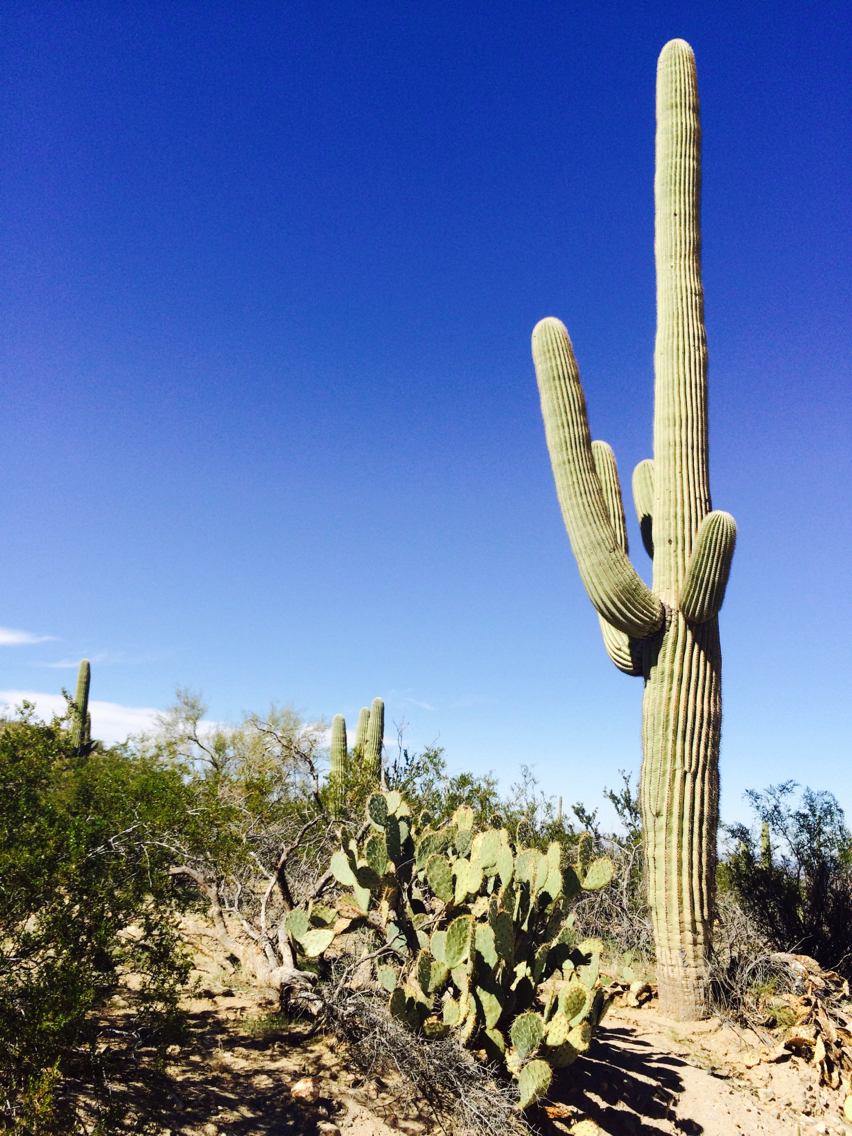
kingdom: Plantae
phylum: Tracheophyta
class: Magnoliopsida
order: Caryophyllales
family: Cactaceae
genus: Carnegiea
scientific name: Carnegiea gigantea
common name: Saguaro
